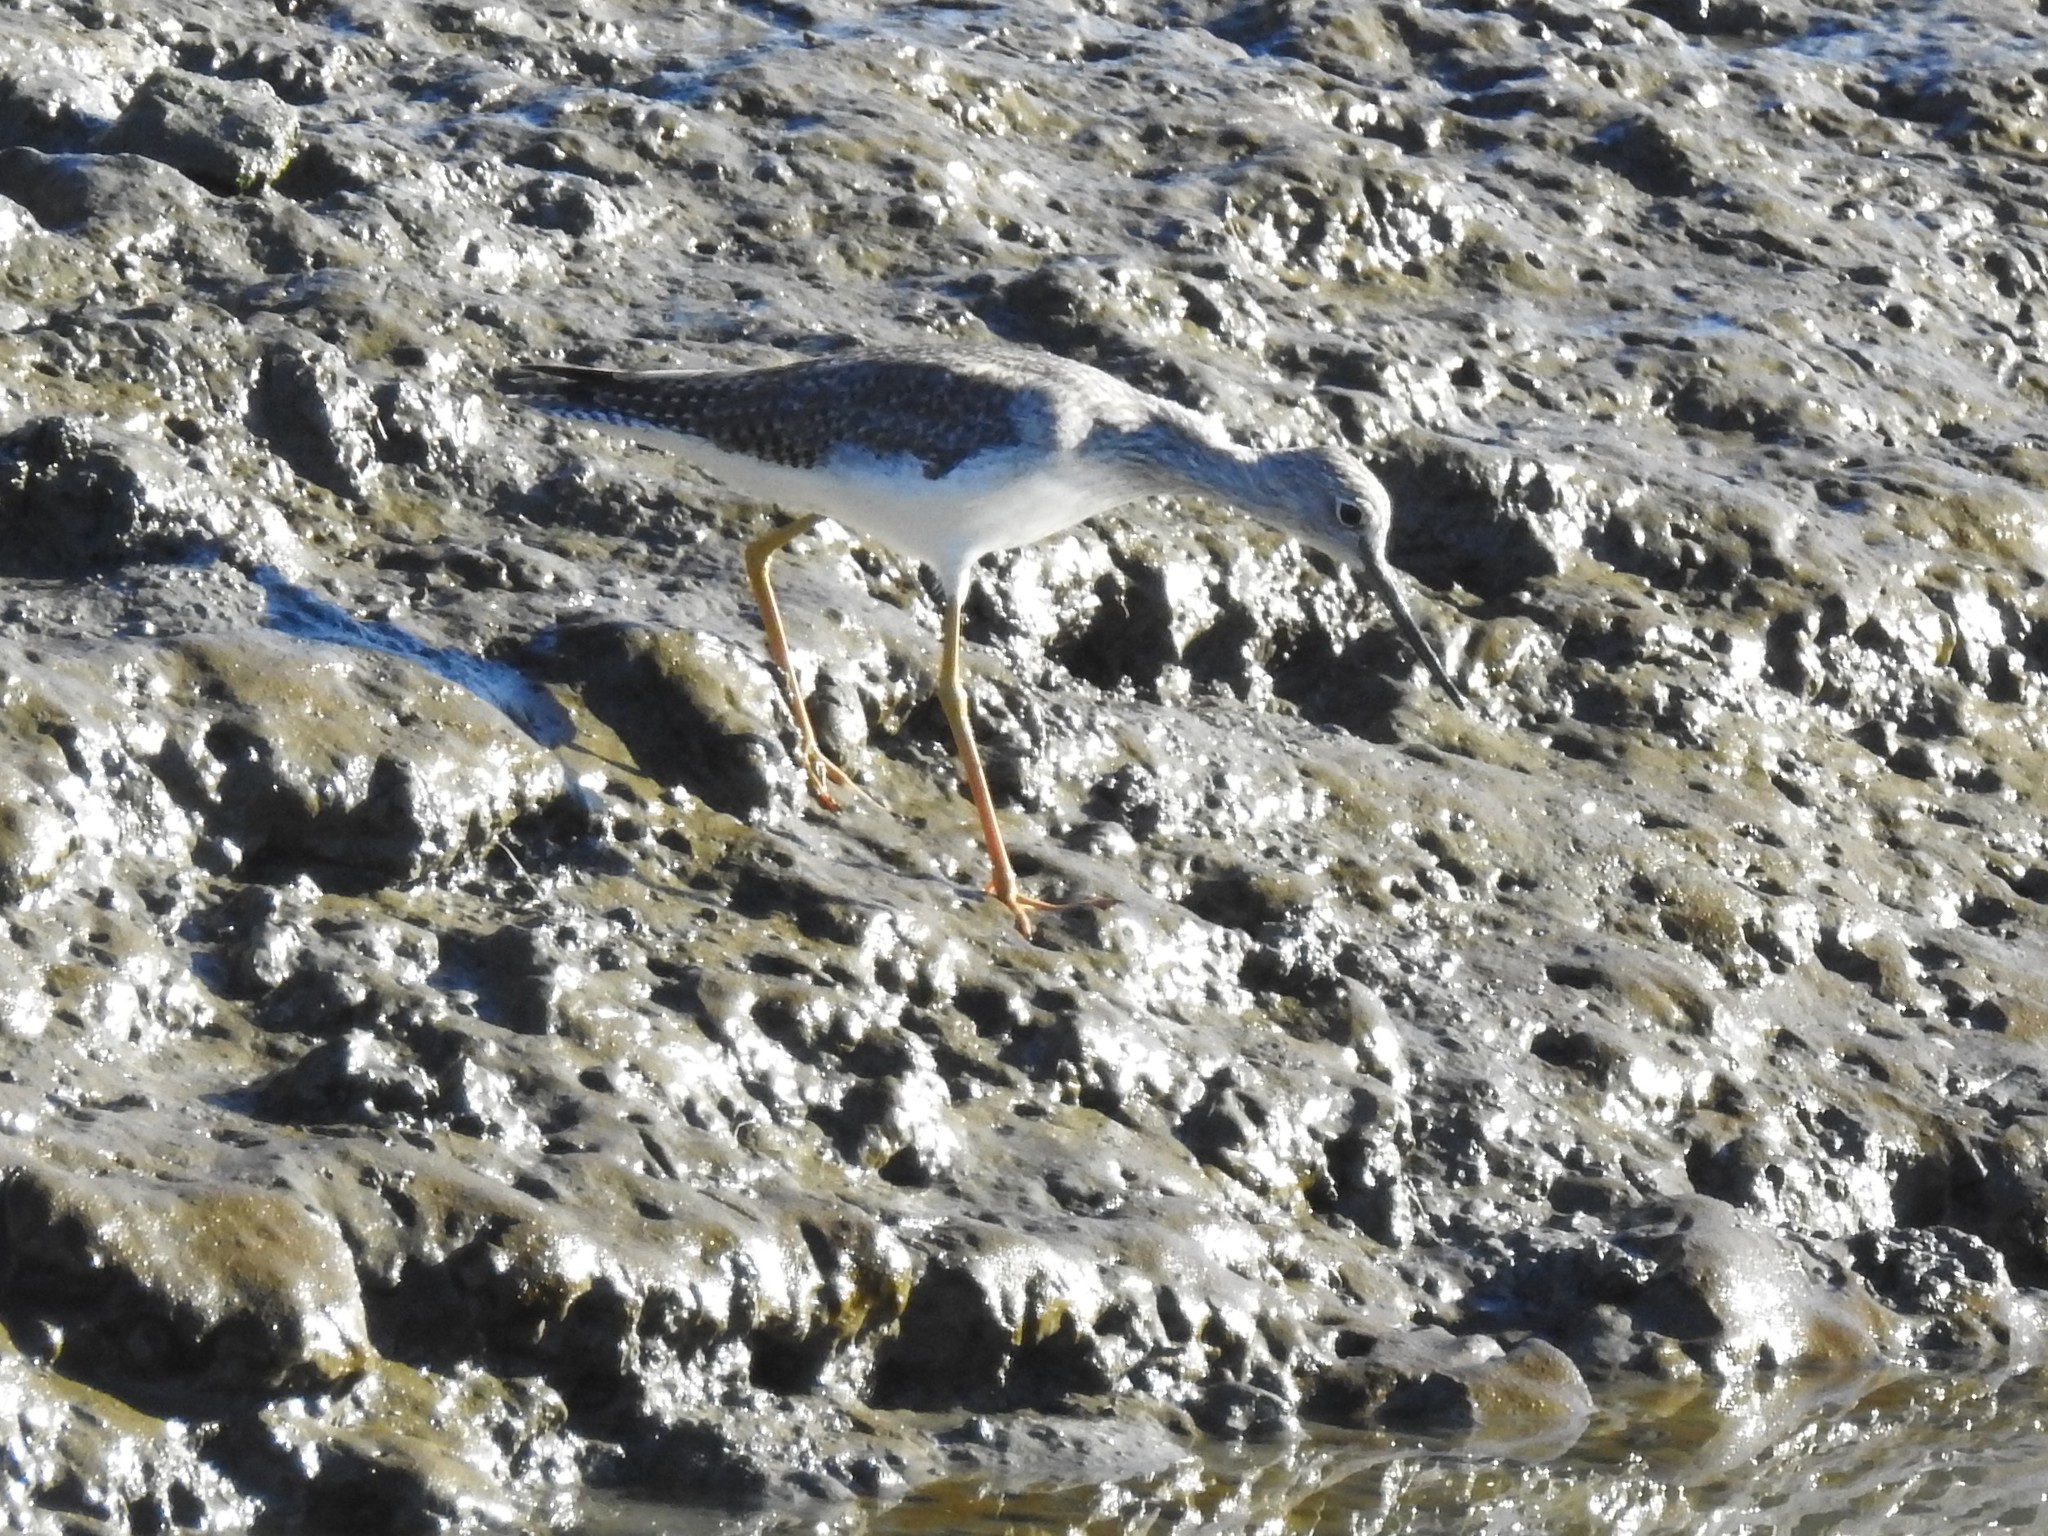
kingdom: Animalia
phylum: Chordata
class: Aves
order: Charadriiformes
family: Scolopacidae
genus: Tringa
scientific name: Tringa melanoleuca
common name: Greater yellowlegs
